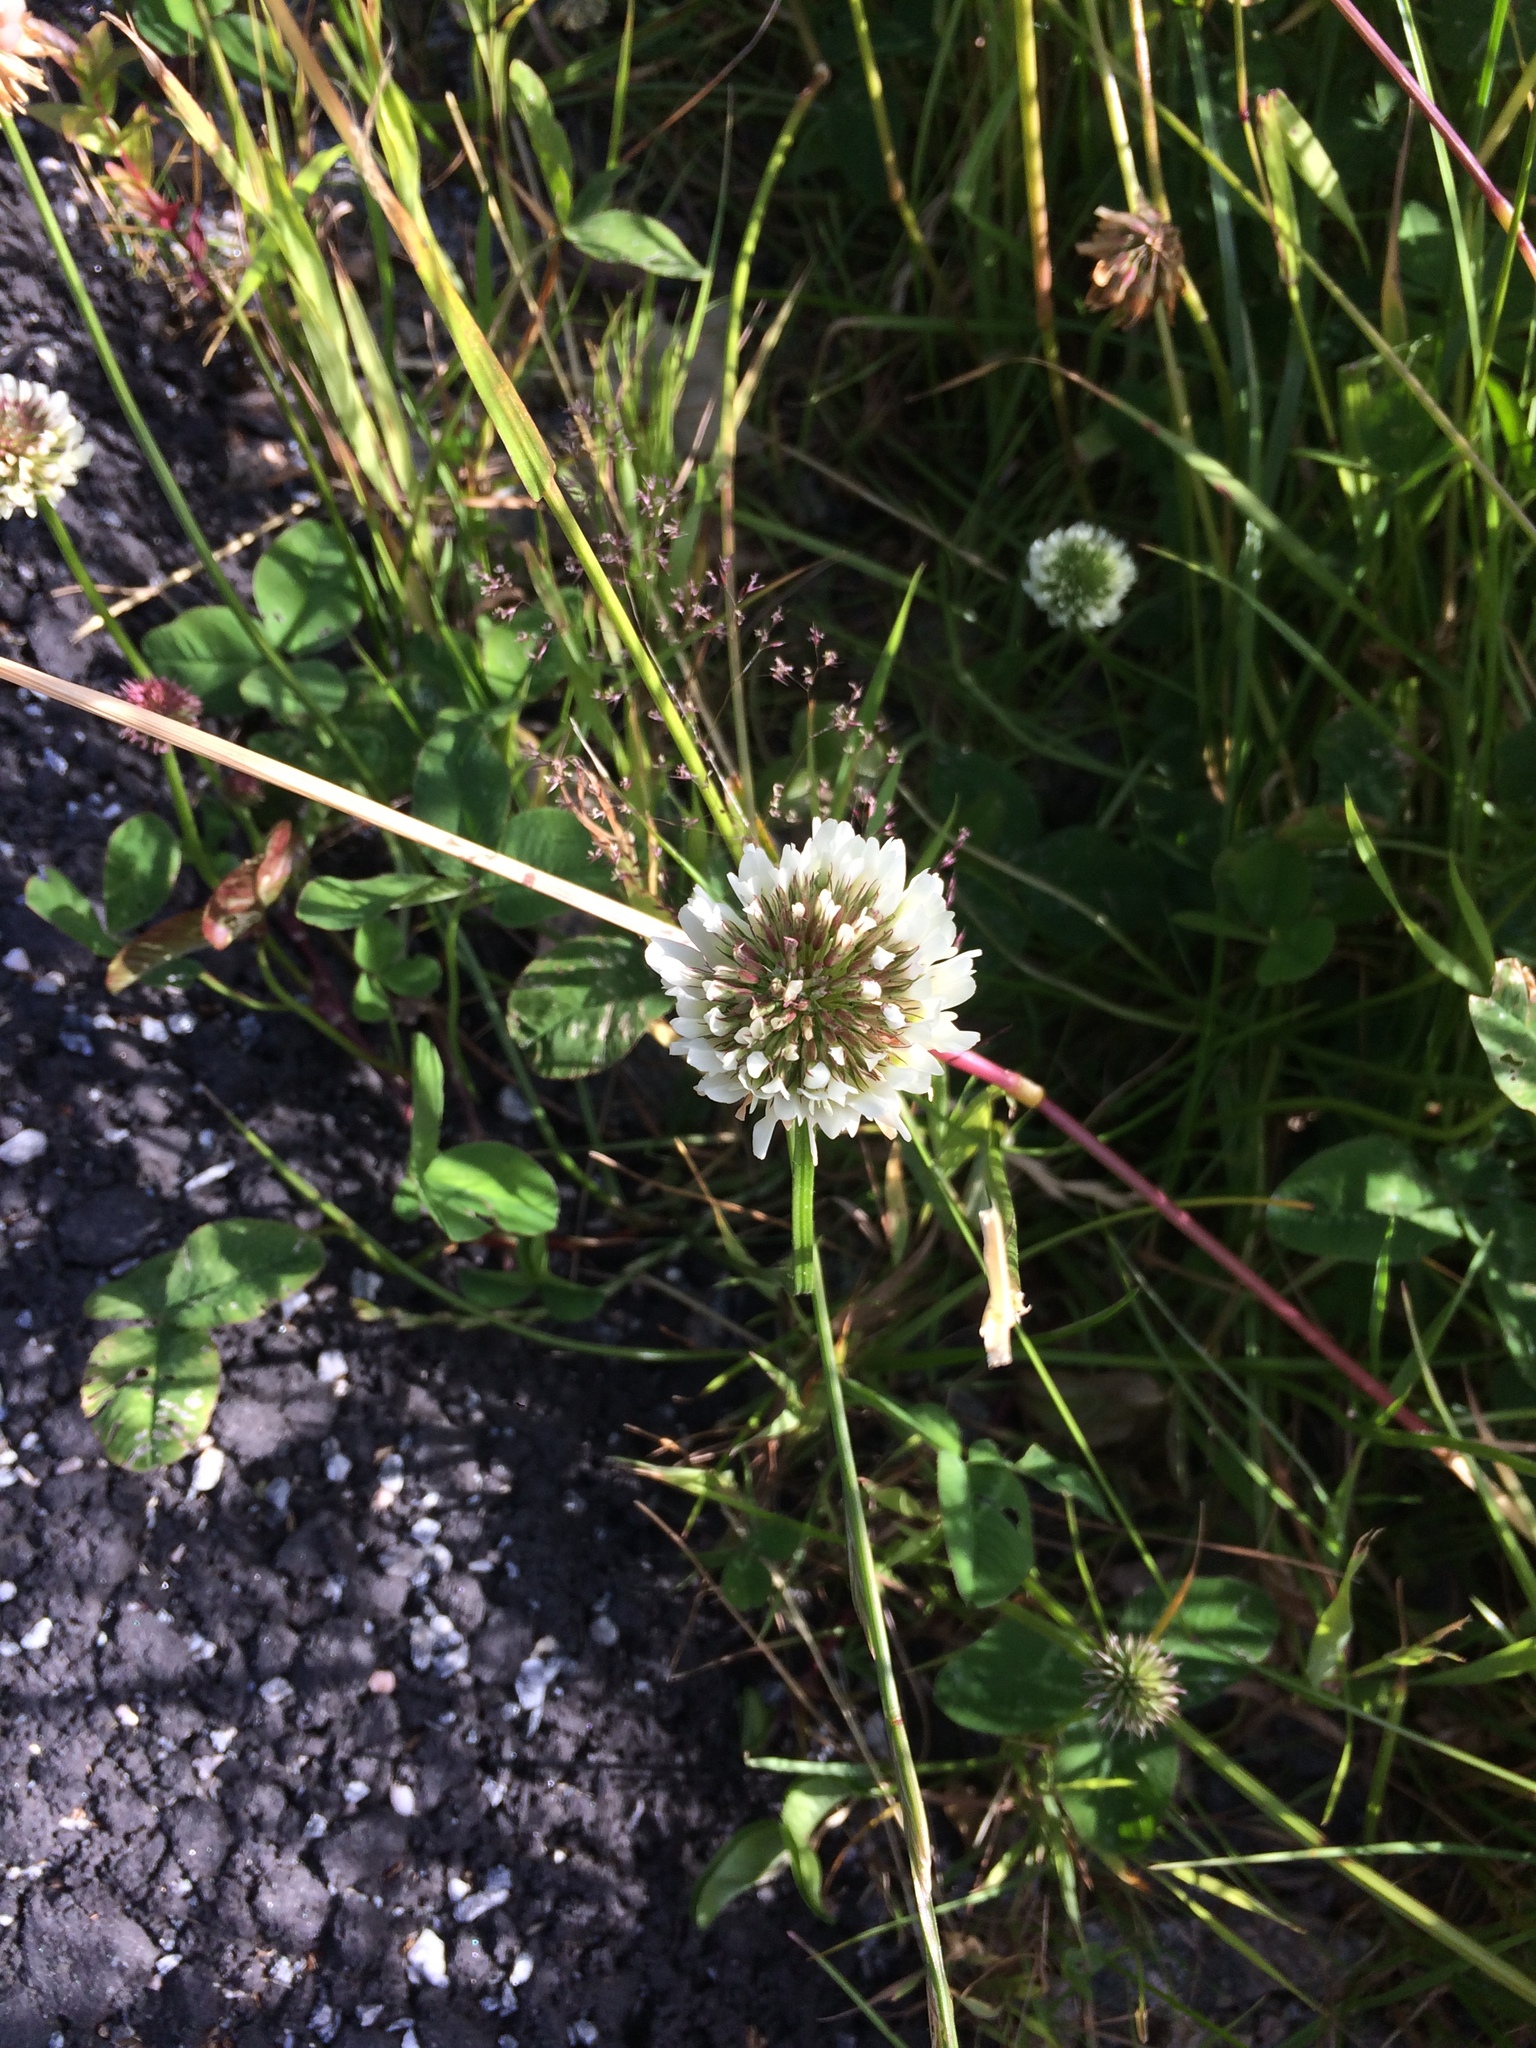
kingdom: Plantae
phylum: Tracheophyta
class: Magnoliopsida
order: Fabales
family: Fabaceae
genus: Trifolium
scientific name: Trifolium repens
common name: White clover
